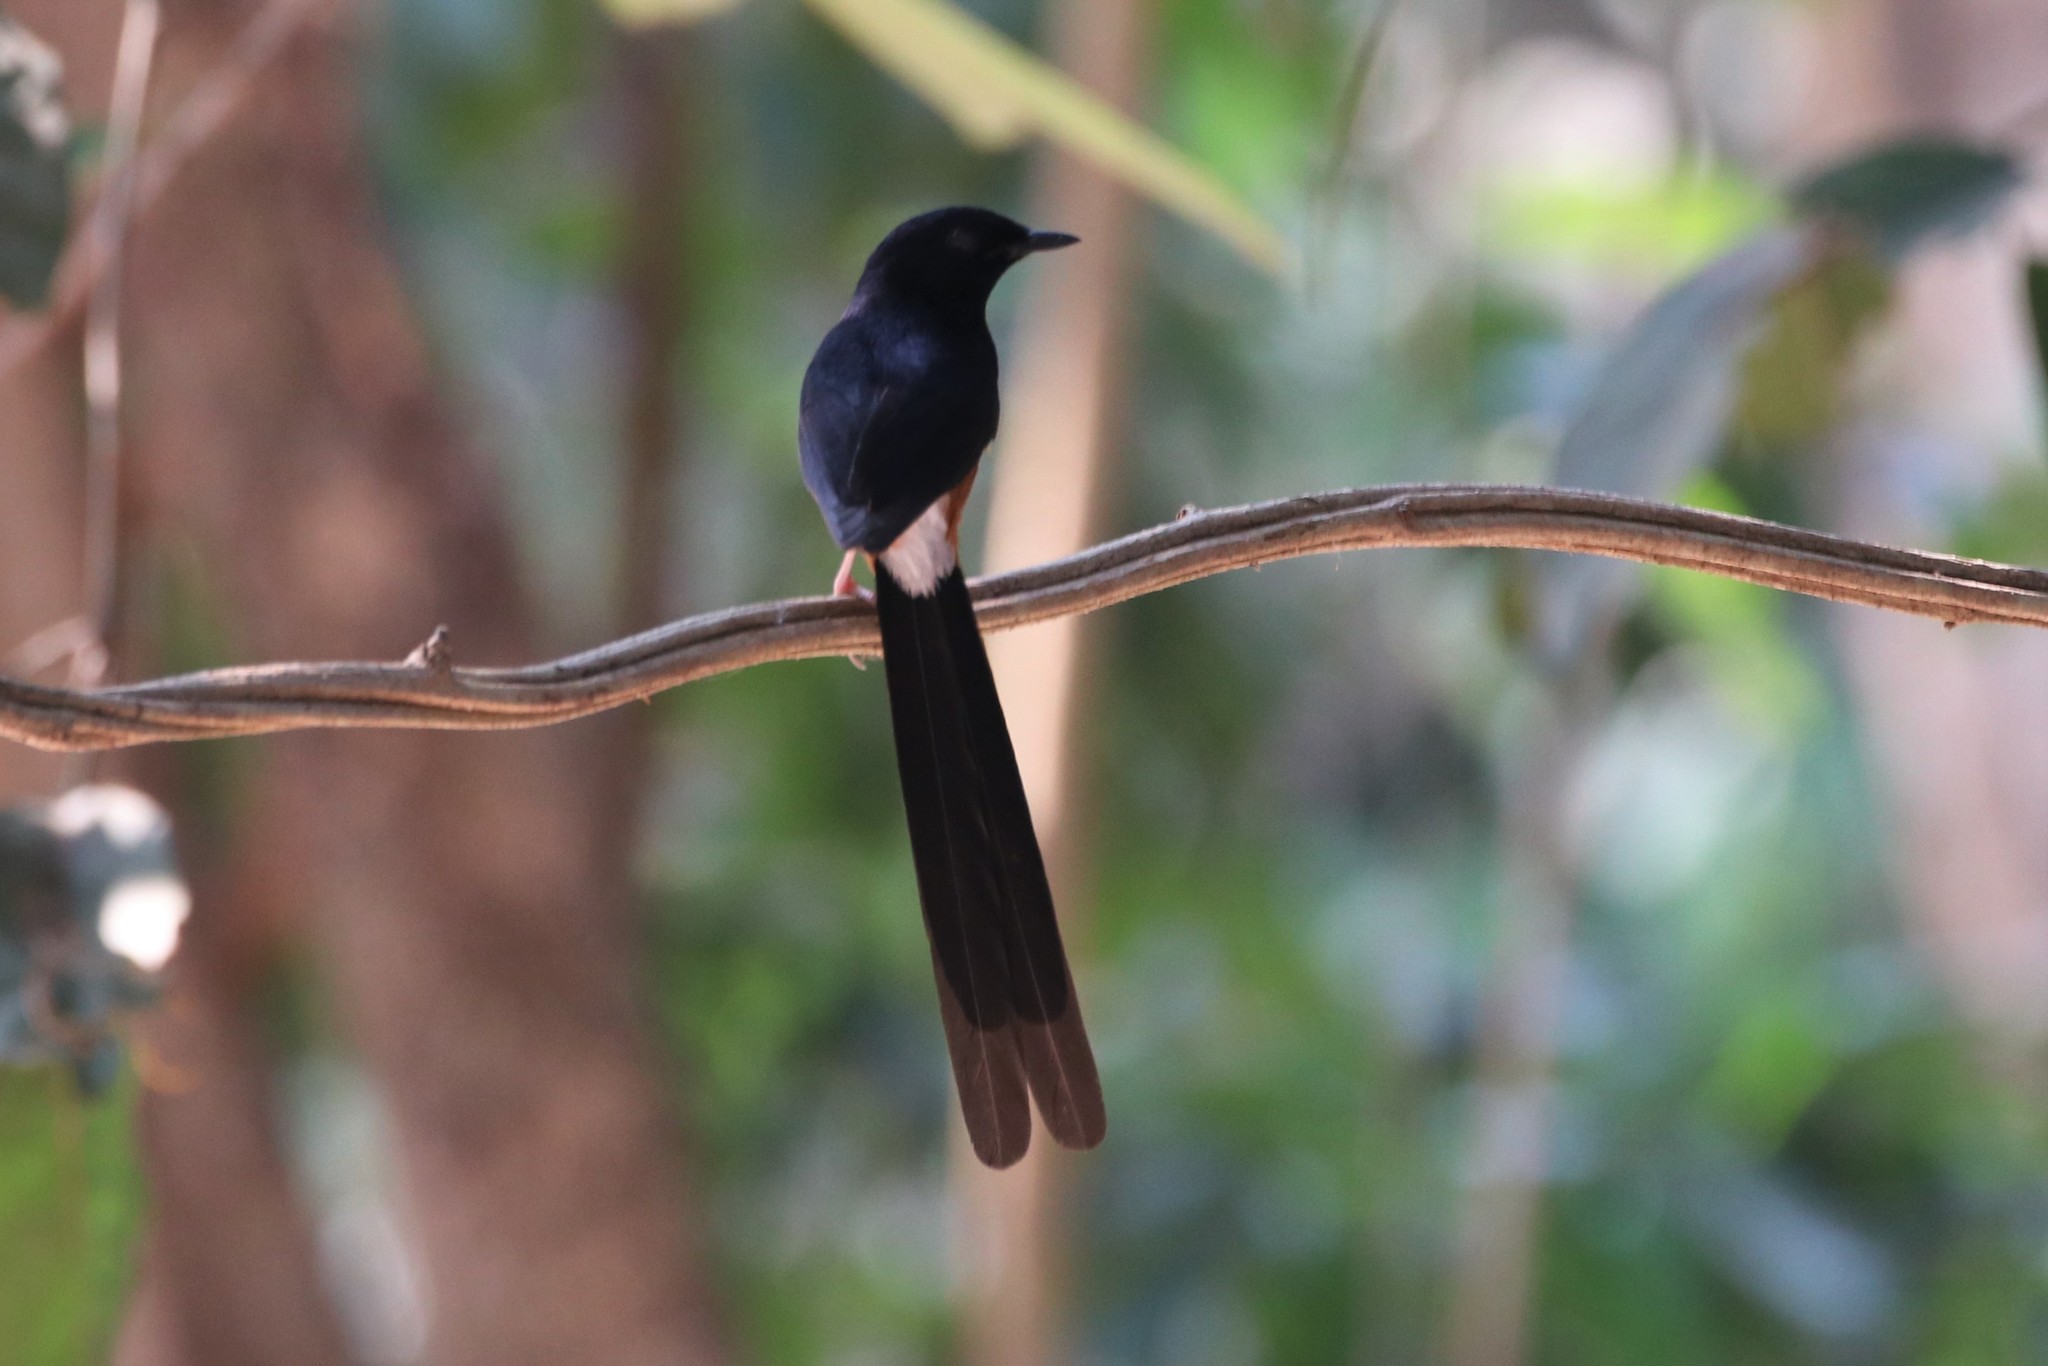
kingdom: Animalia
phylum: Chordata
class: Aves
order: Passeriformes
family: Muscicapidae
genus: Copsychus
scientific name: Copsychus malabaricus
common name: White-rumped shama
